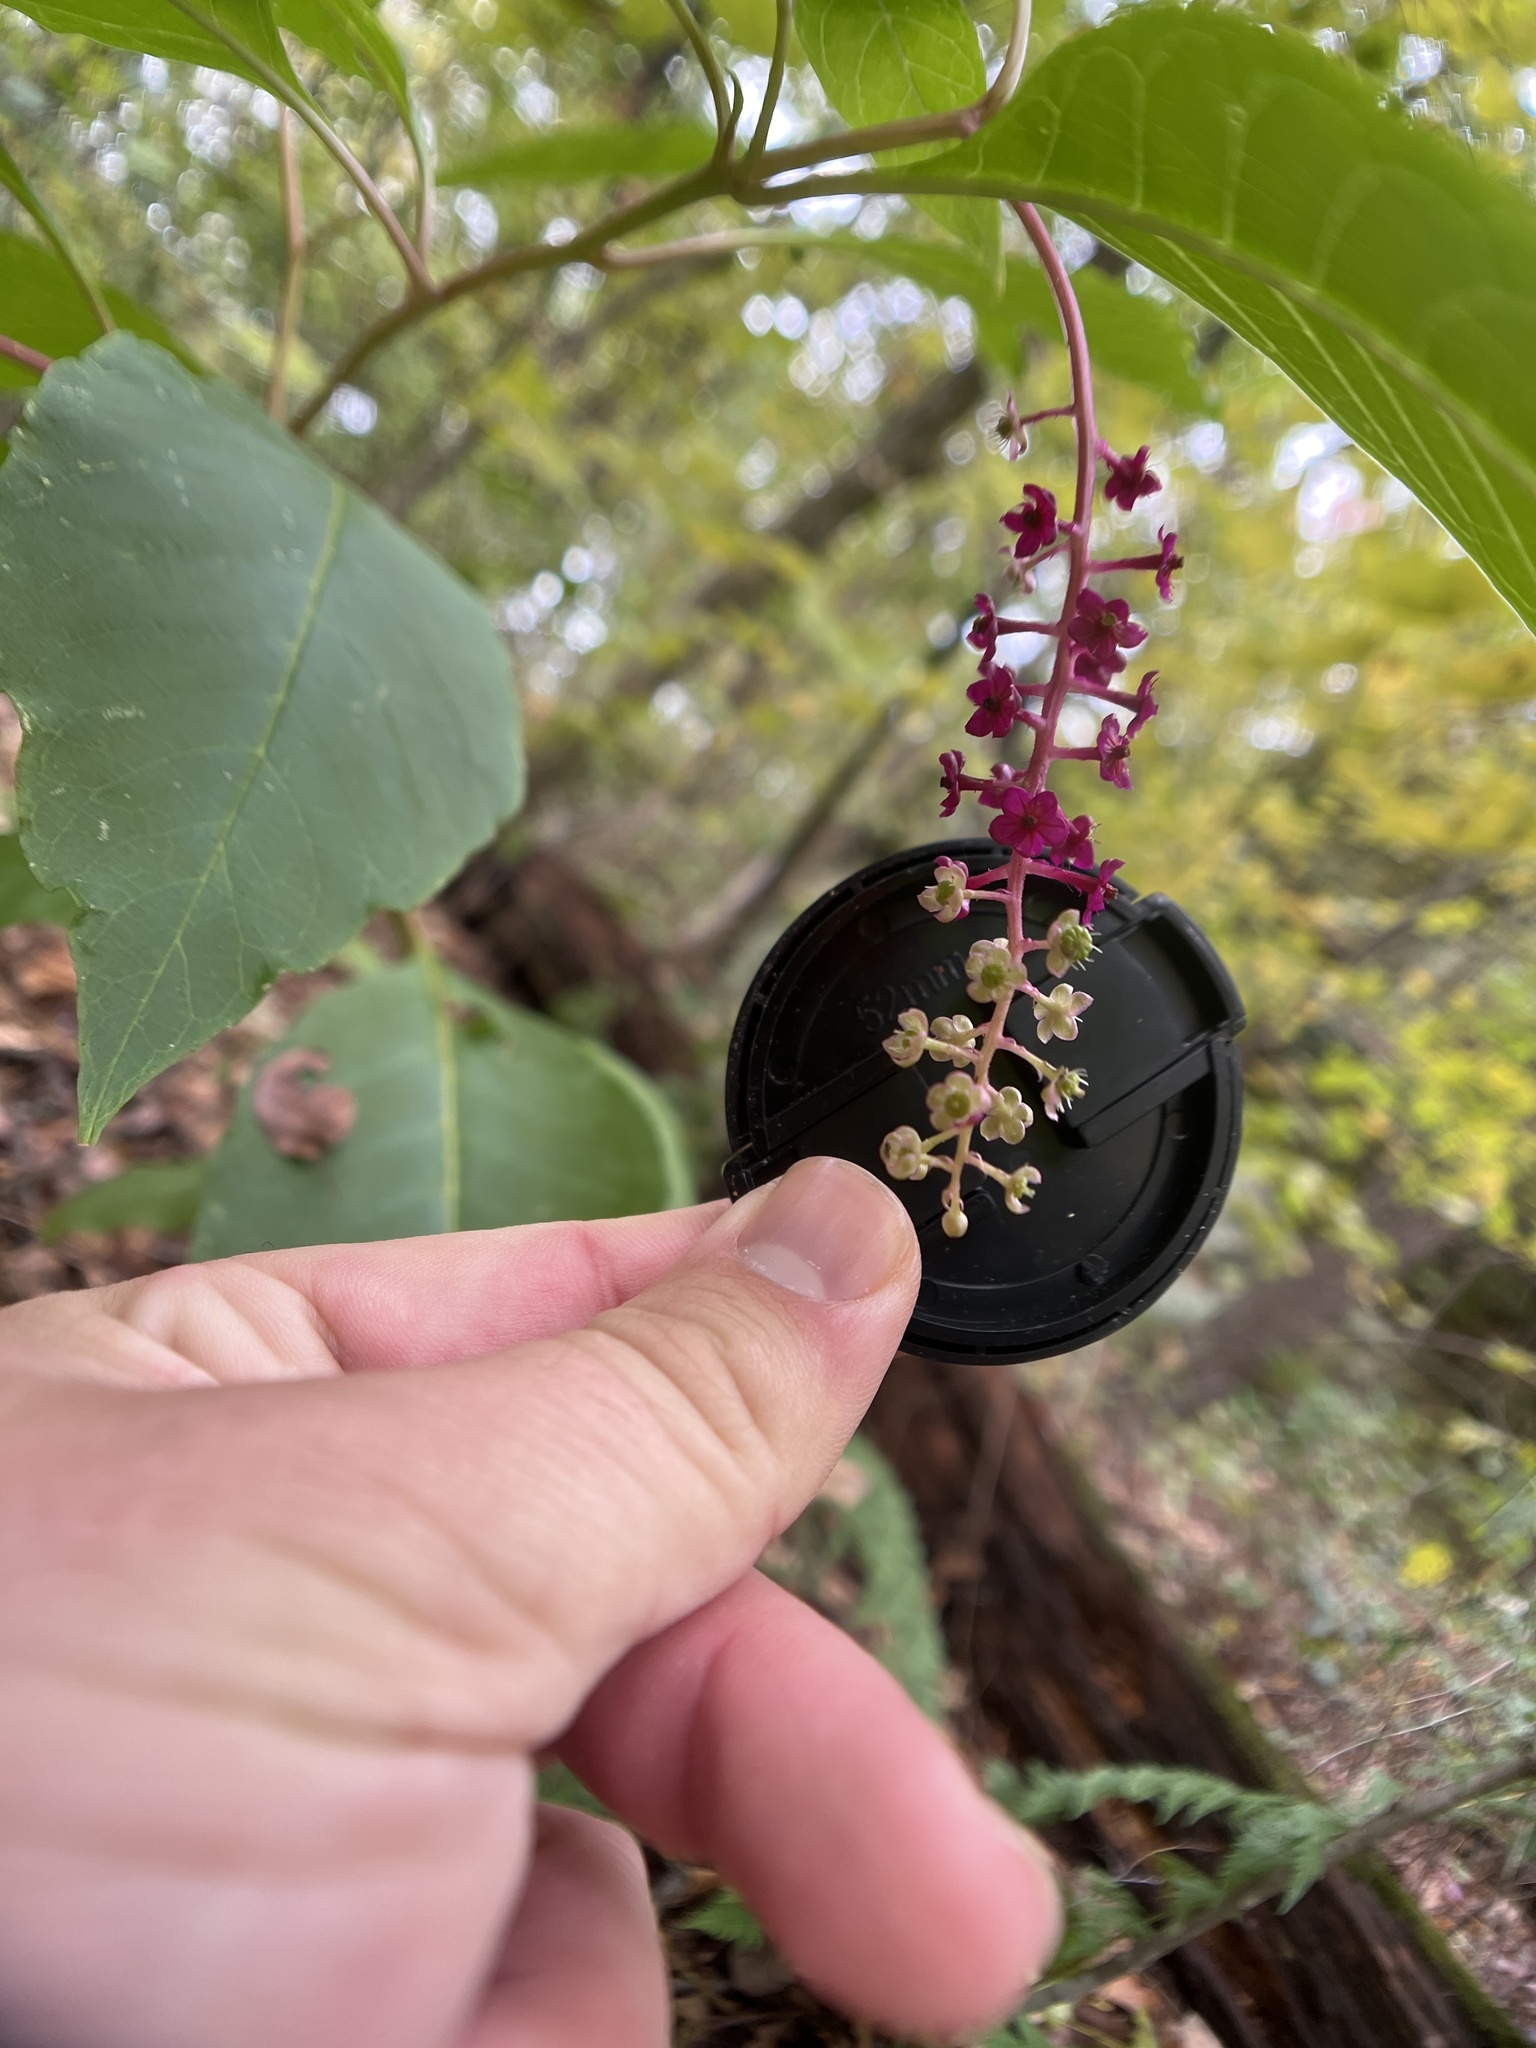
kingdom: Plantae
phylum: Tracheophyta
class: Magnoliopsida
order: Caryophyllales
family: Phytolaccaceae
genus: Phytolacca
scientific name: Phytolacca americana
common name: American pokeweed
